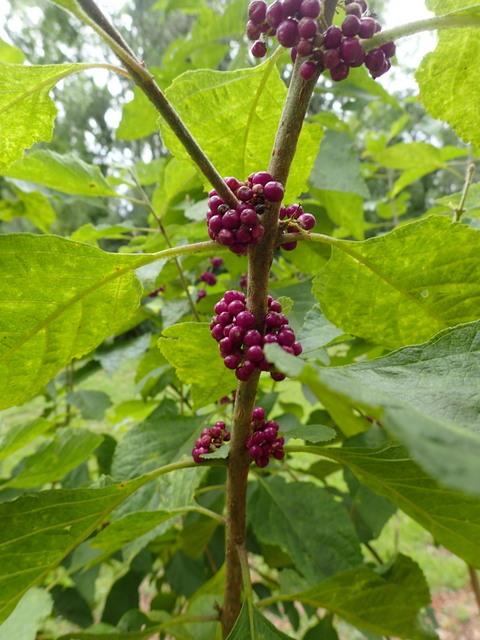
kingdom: Plantae
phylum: Tracheophyta
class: Magnoliopsida
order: Lamiales
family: Lamiaceae
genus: Callicarpa
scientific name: Callicarpa americana
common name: American beautyberry
